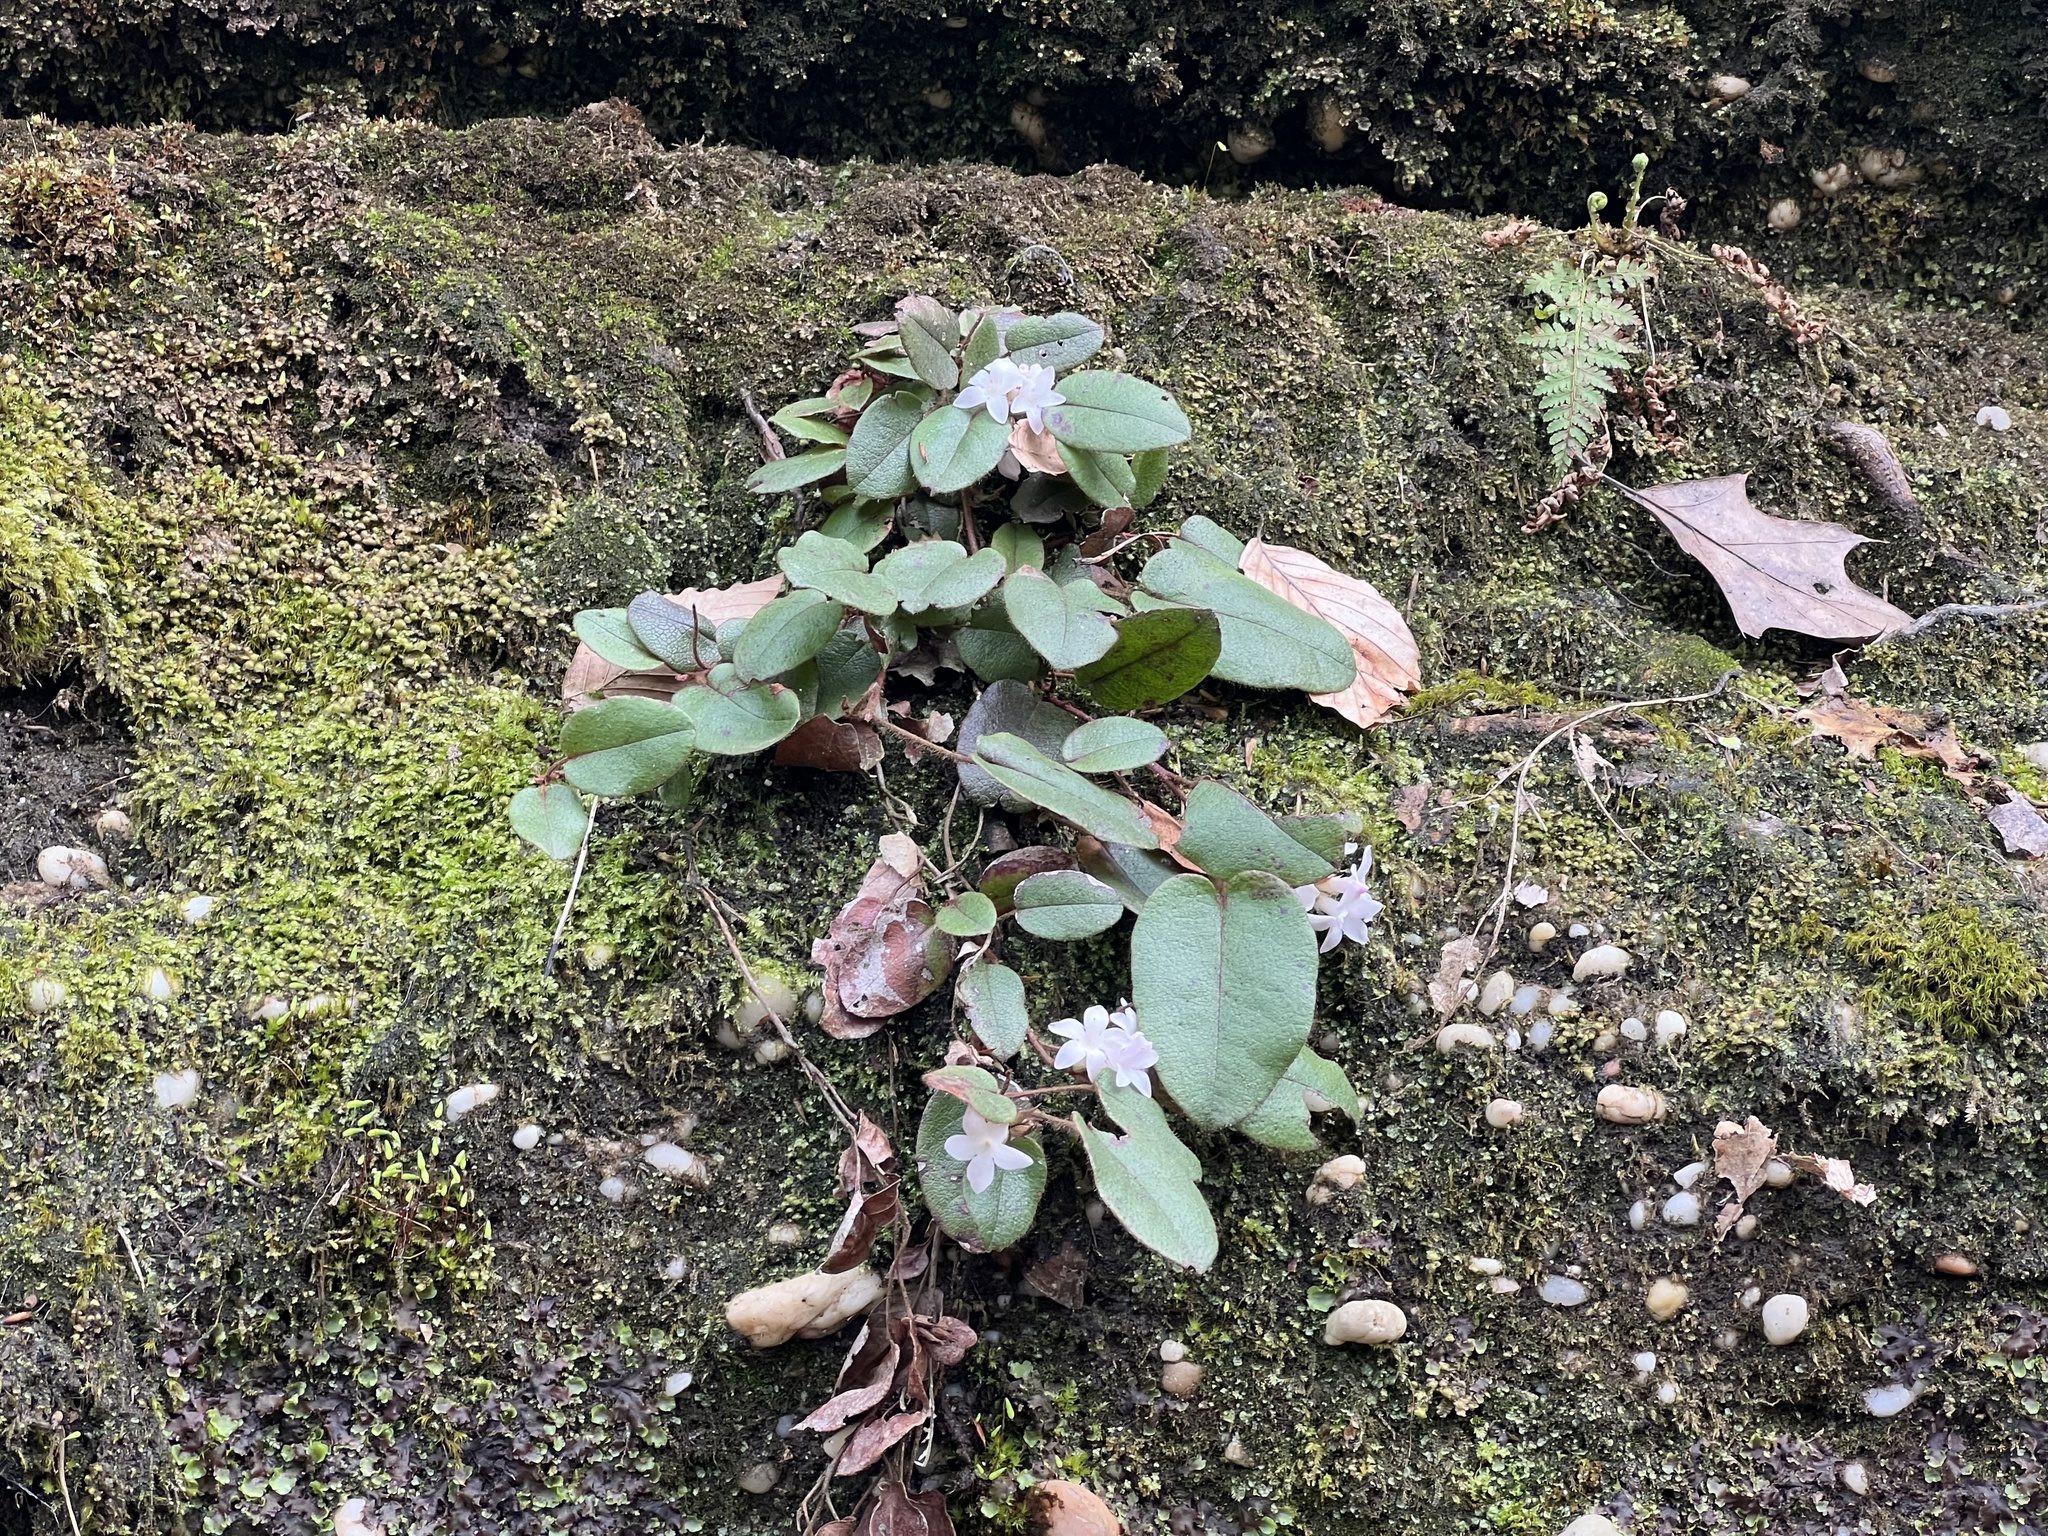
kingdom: Plantae
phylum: Tracheophyta
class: Magnoliopsida
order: Ericales
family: Ericaceae
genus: Epigaea
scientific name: Epigaea repens
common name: Gravelroot
